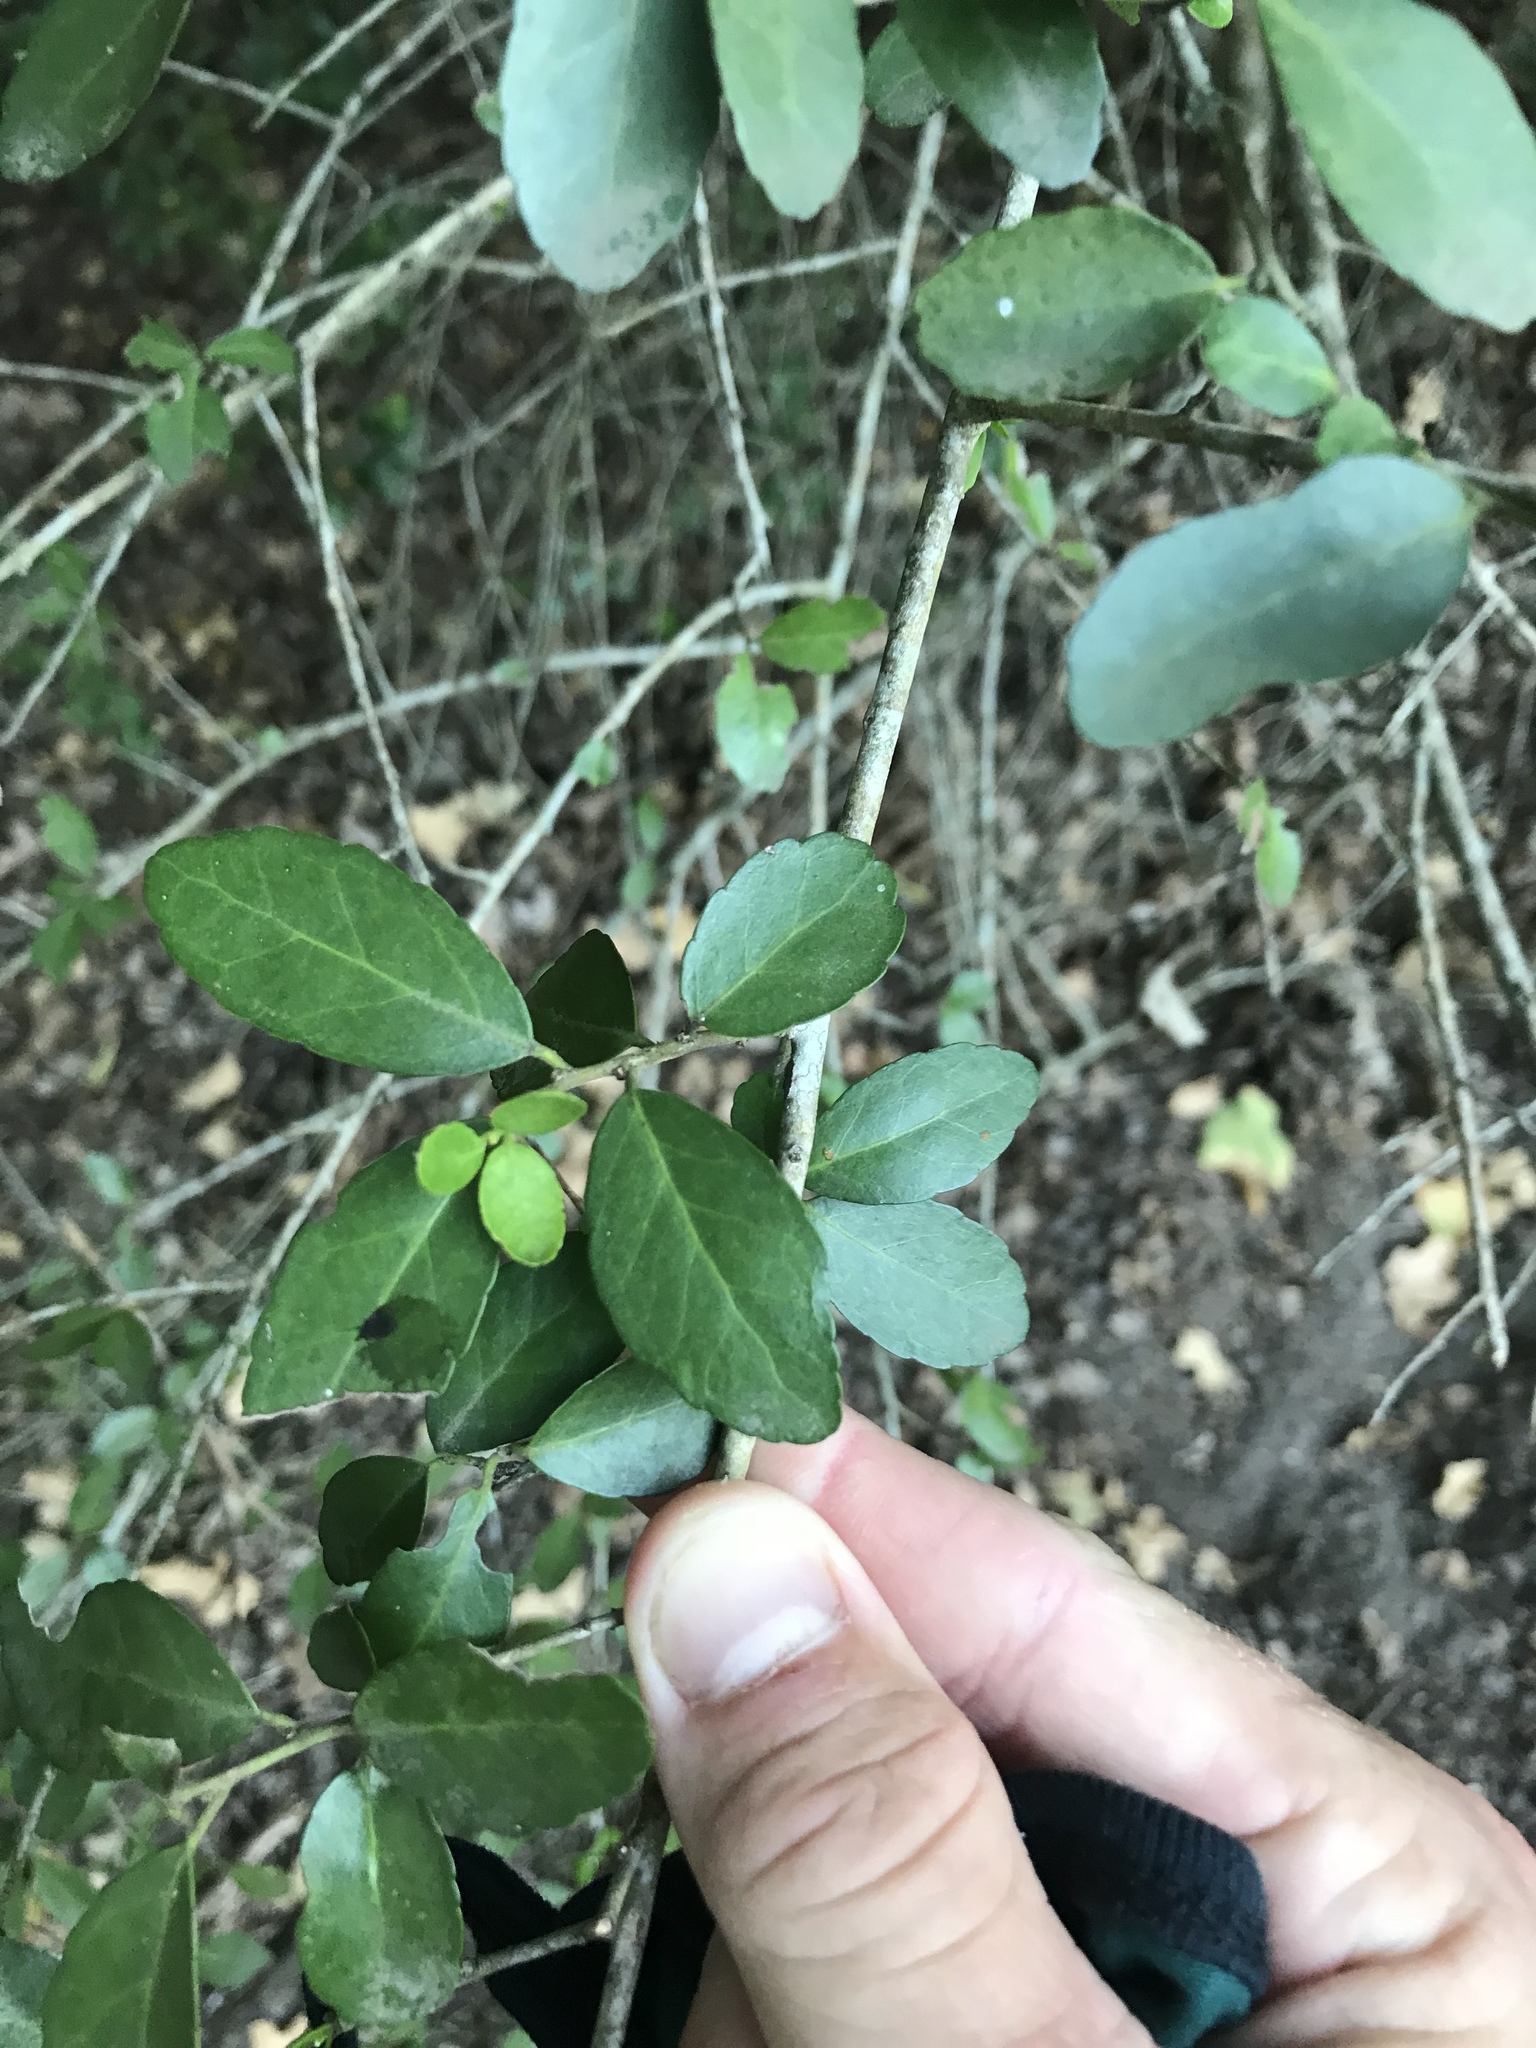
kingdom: Plantae
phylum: Tracheophyta
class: Magnoliopsida
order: Aquifoliales
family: Aquifoliaceae
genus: Ilex
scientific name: Ilex vomitoria
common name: Yaupon holly
